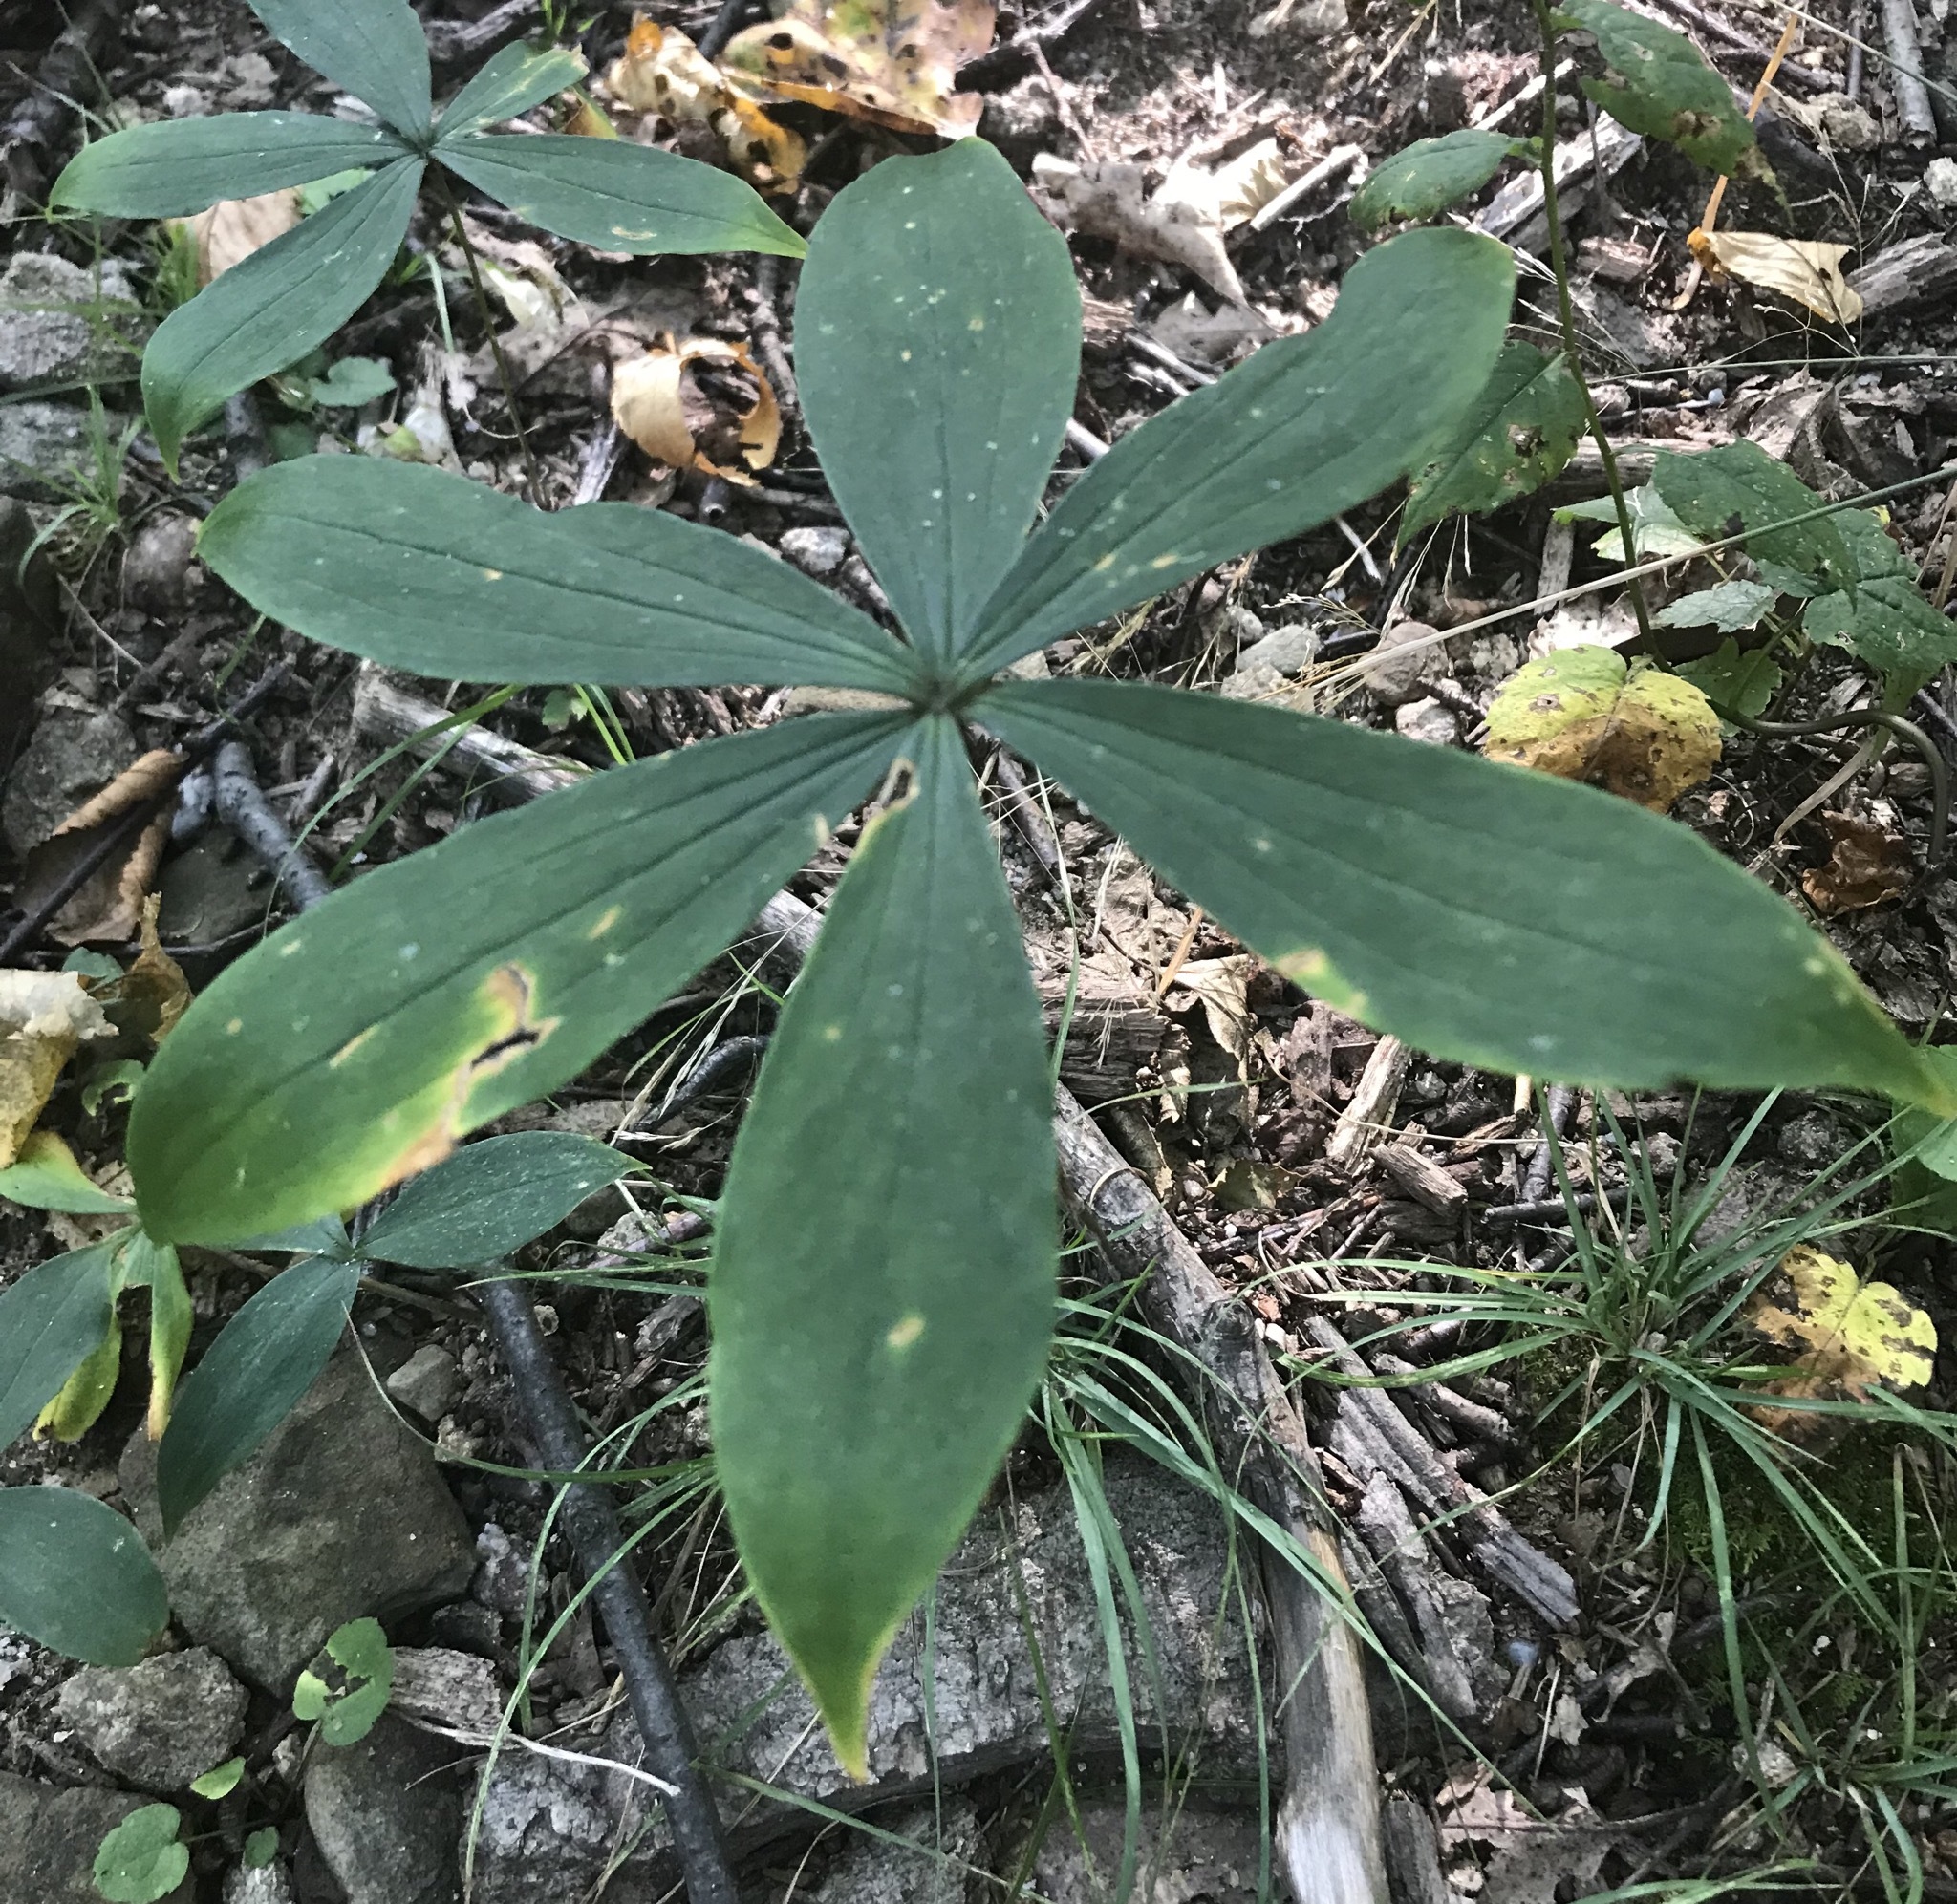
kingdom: Plantae
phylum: Tracheophyta
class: Liliopsida
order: Liliales
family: Liliaceae
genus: Medeola
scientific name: Medeola virginiana
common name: Indian cucumber-root
